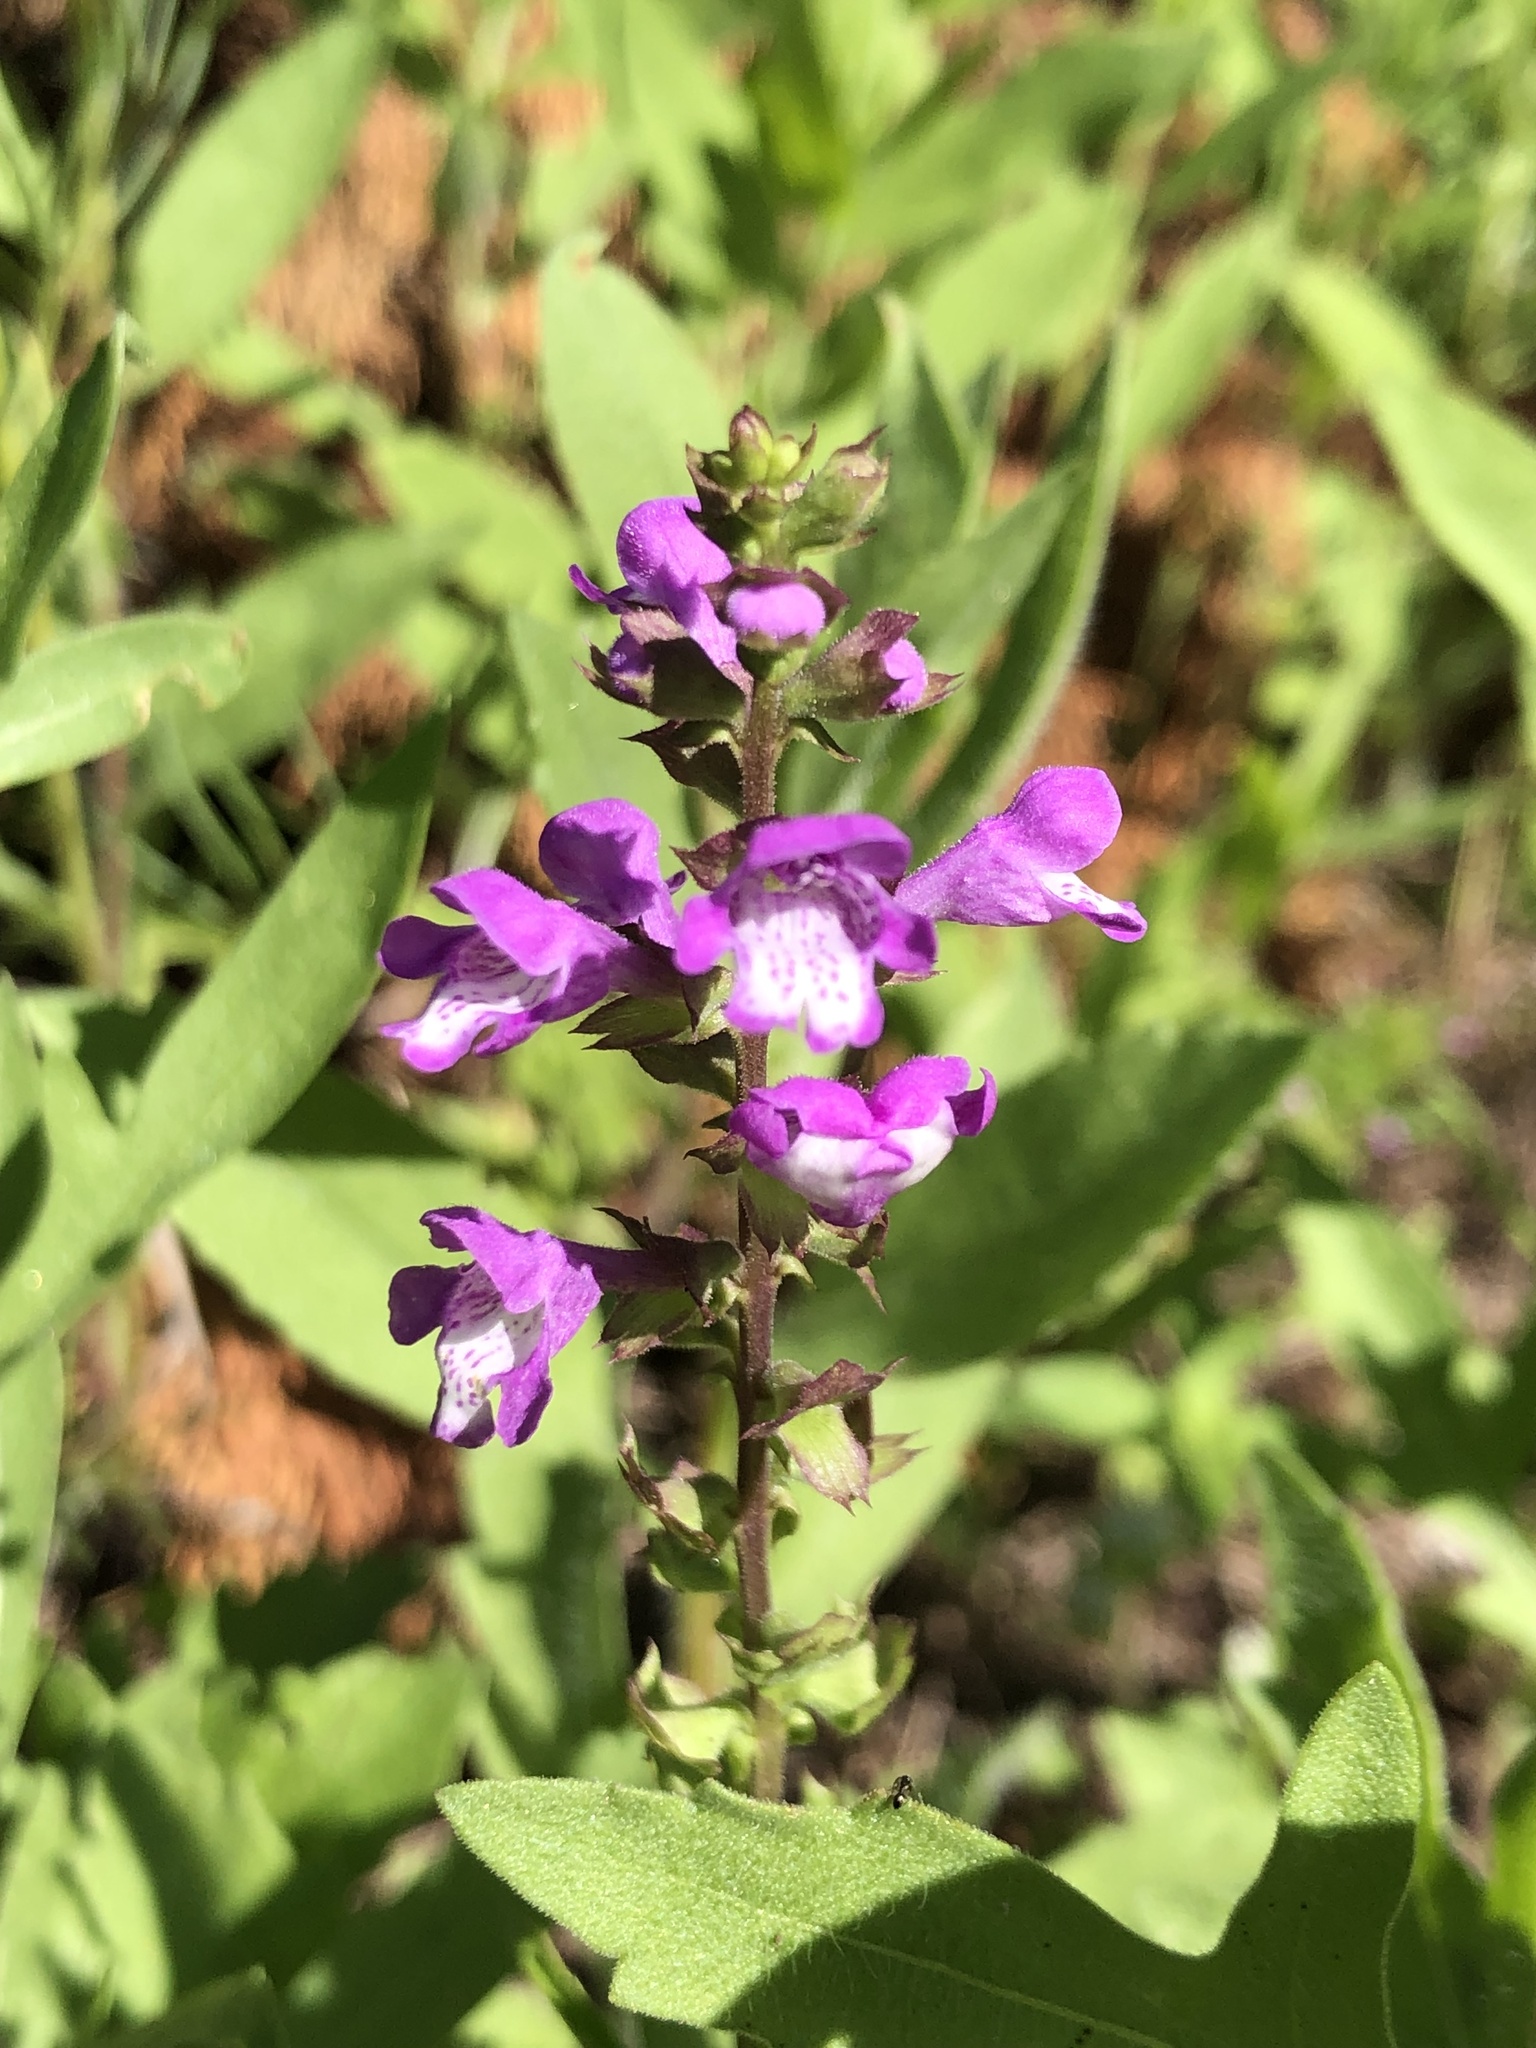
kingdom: Plantae
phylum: Tracheophyta
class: Magnoliopsida
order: Lamiales
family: Lamiaceae
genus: Warnockia
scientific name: Warnockia scutellarioides
